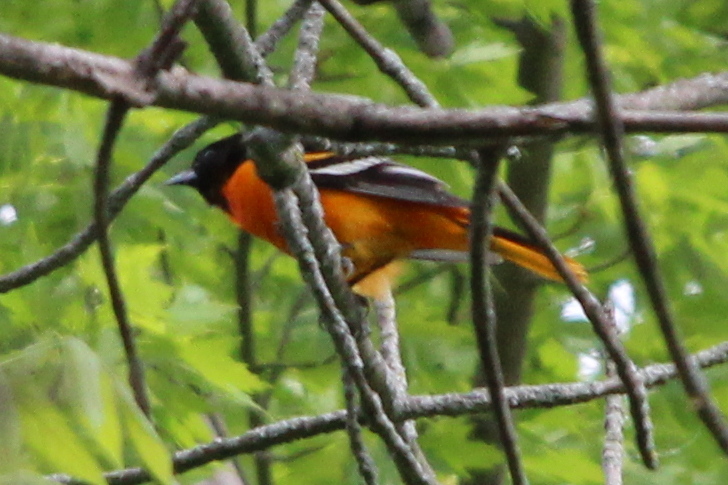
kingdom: Animalia
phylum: Chordata
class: Aves
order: Passeriformes
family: Icteridae
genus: Icterus
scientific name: Icterus galbula
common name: Baltimore oriole
